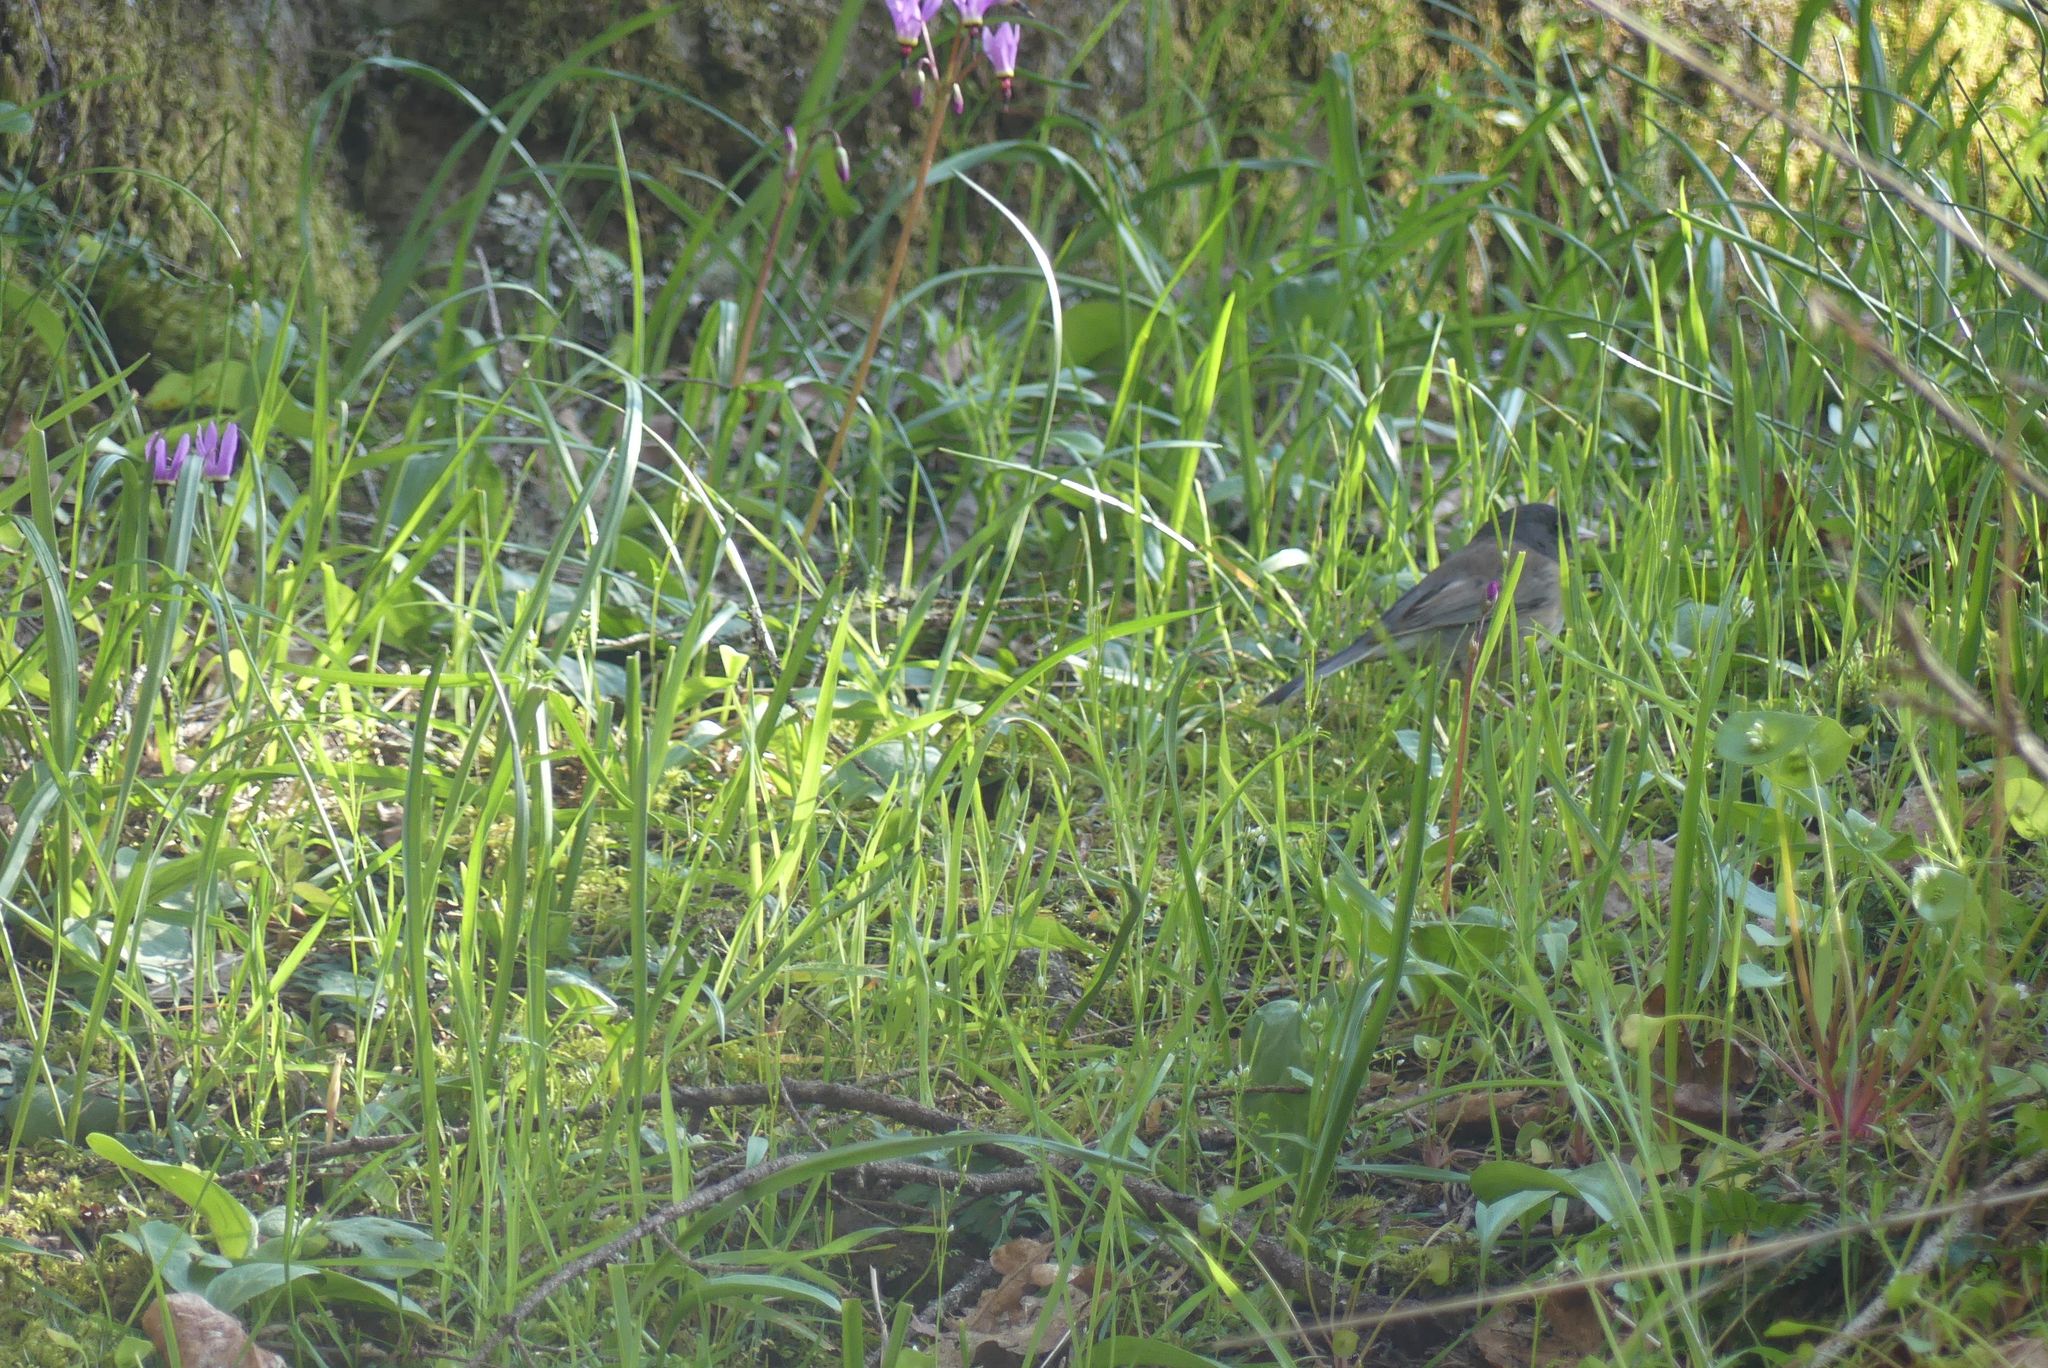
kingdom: Animalia
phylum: Chordata
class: Aves
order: Passeriformes
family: Passerellidae
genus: Junco
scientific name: Junco hyemalis
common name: Dark-eyed junco
